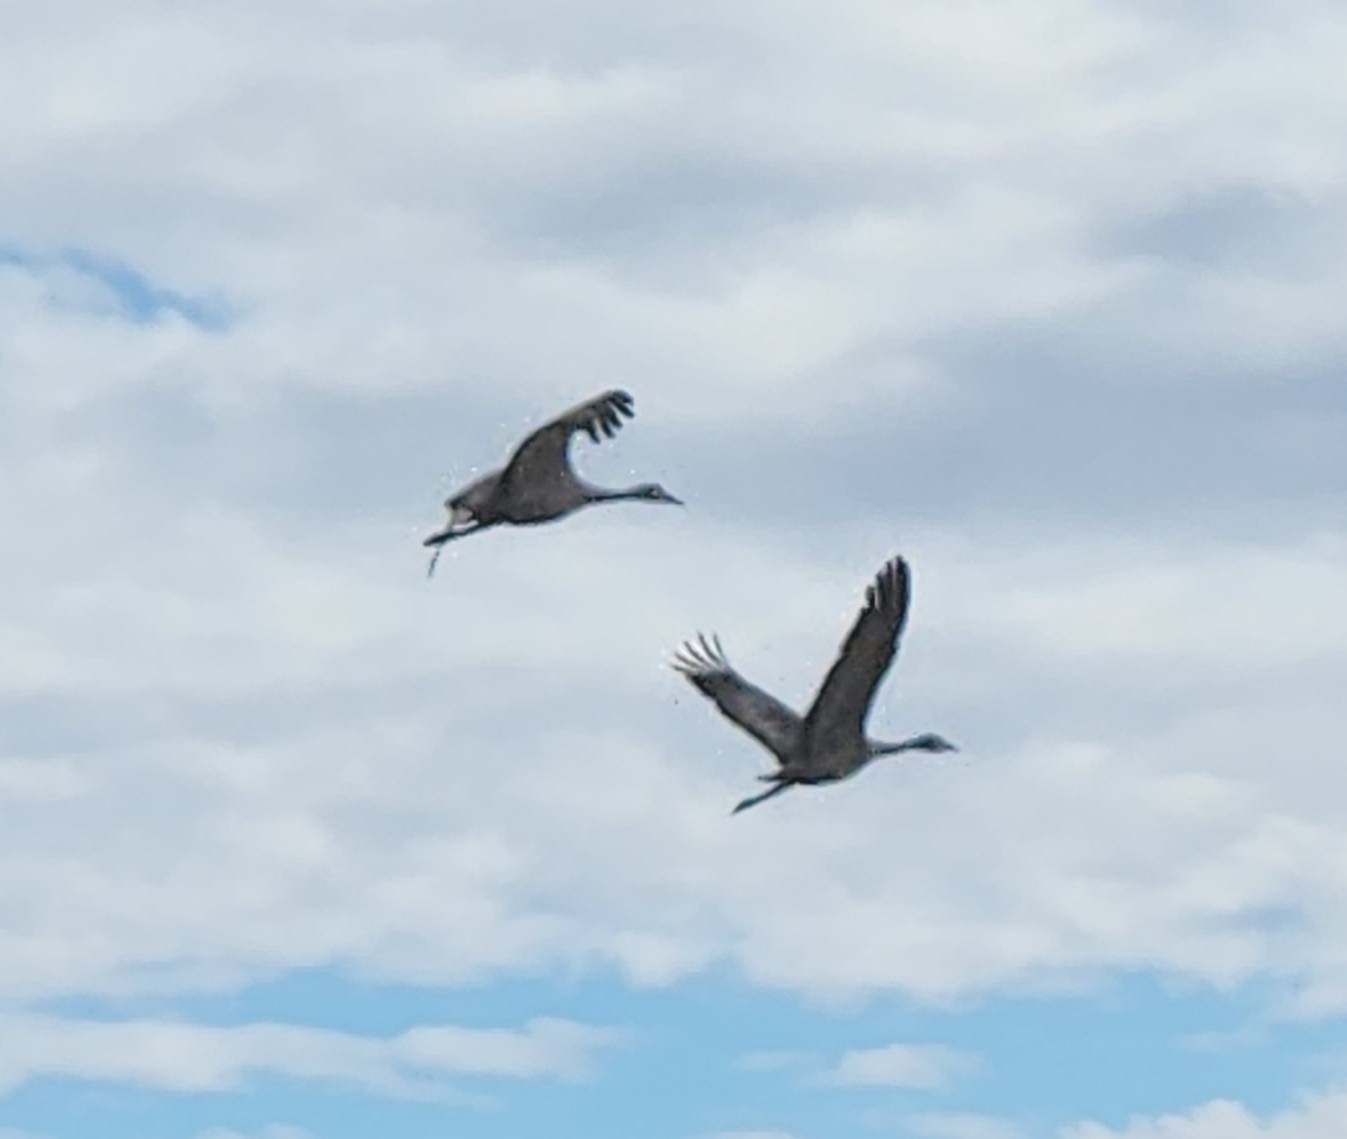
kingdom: Animalia
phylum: Chordata
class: Aves
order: Gruiformes
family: Gruidae
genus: Grus
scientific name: Grus canadensis
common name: Sandhill crane
